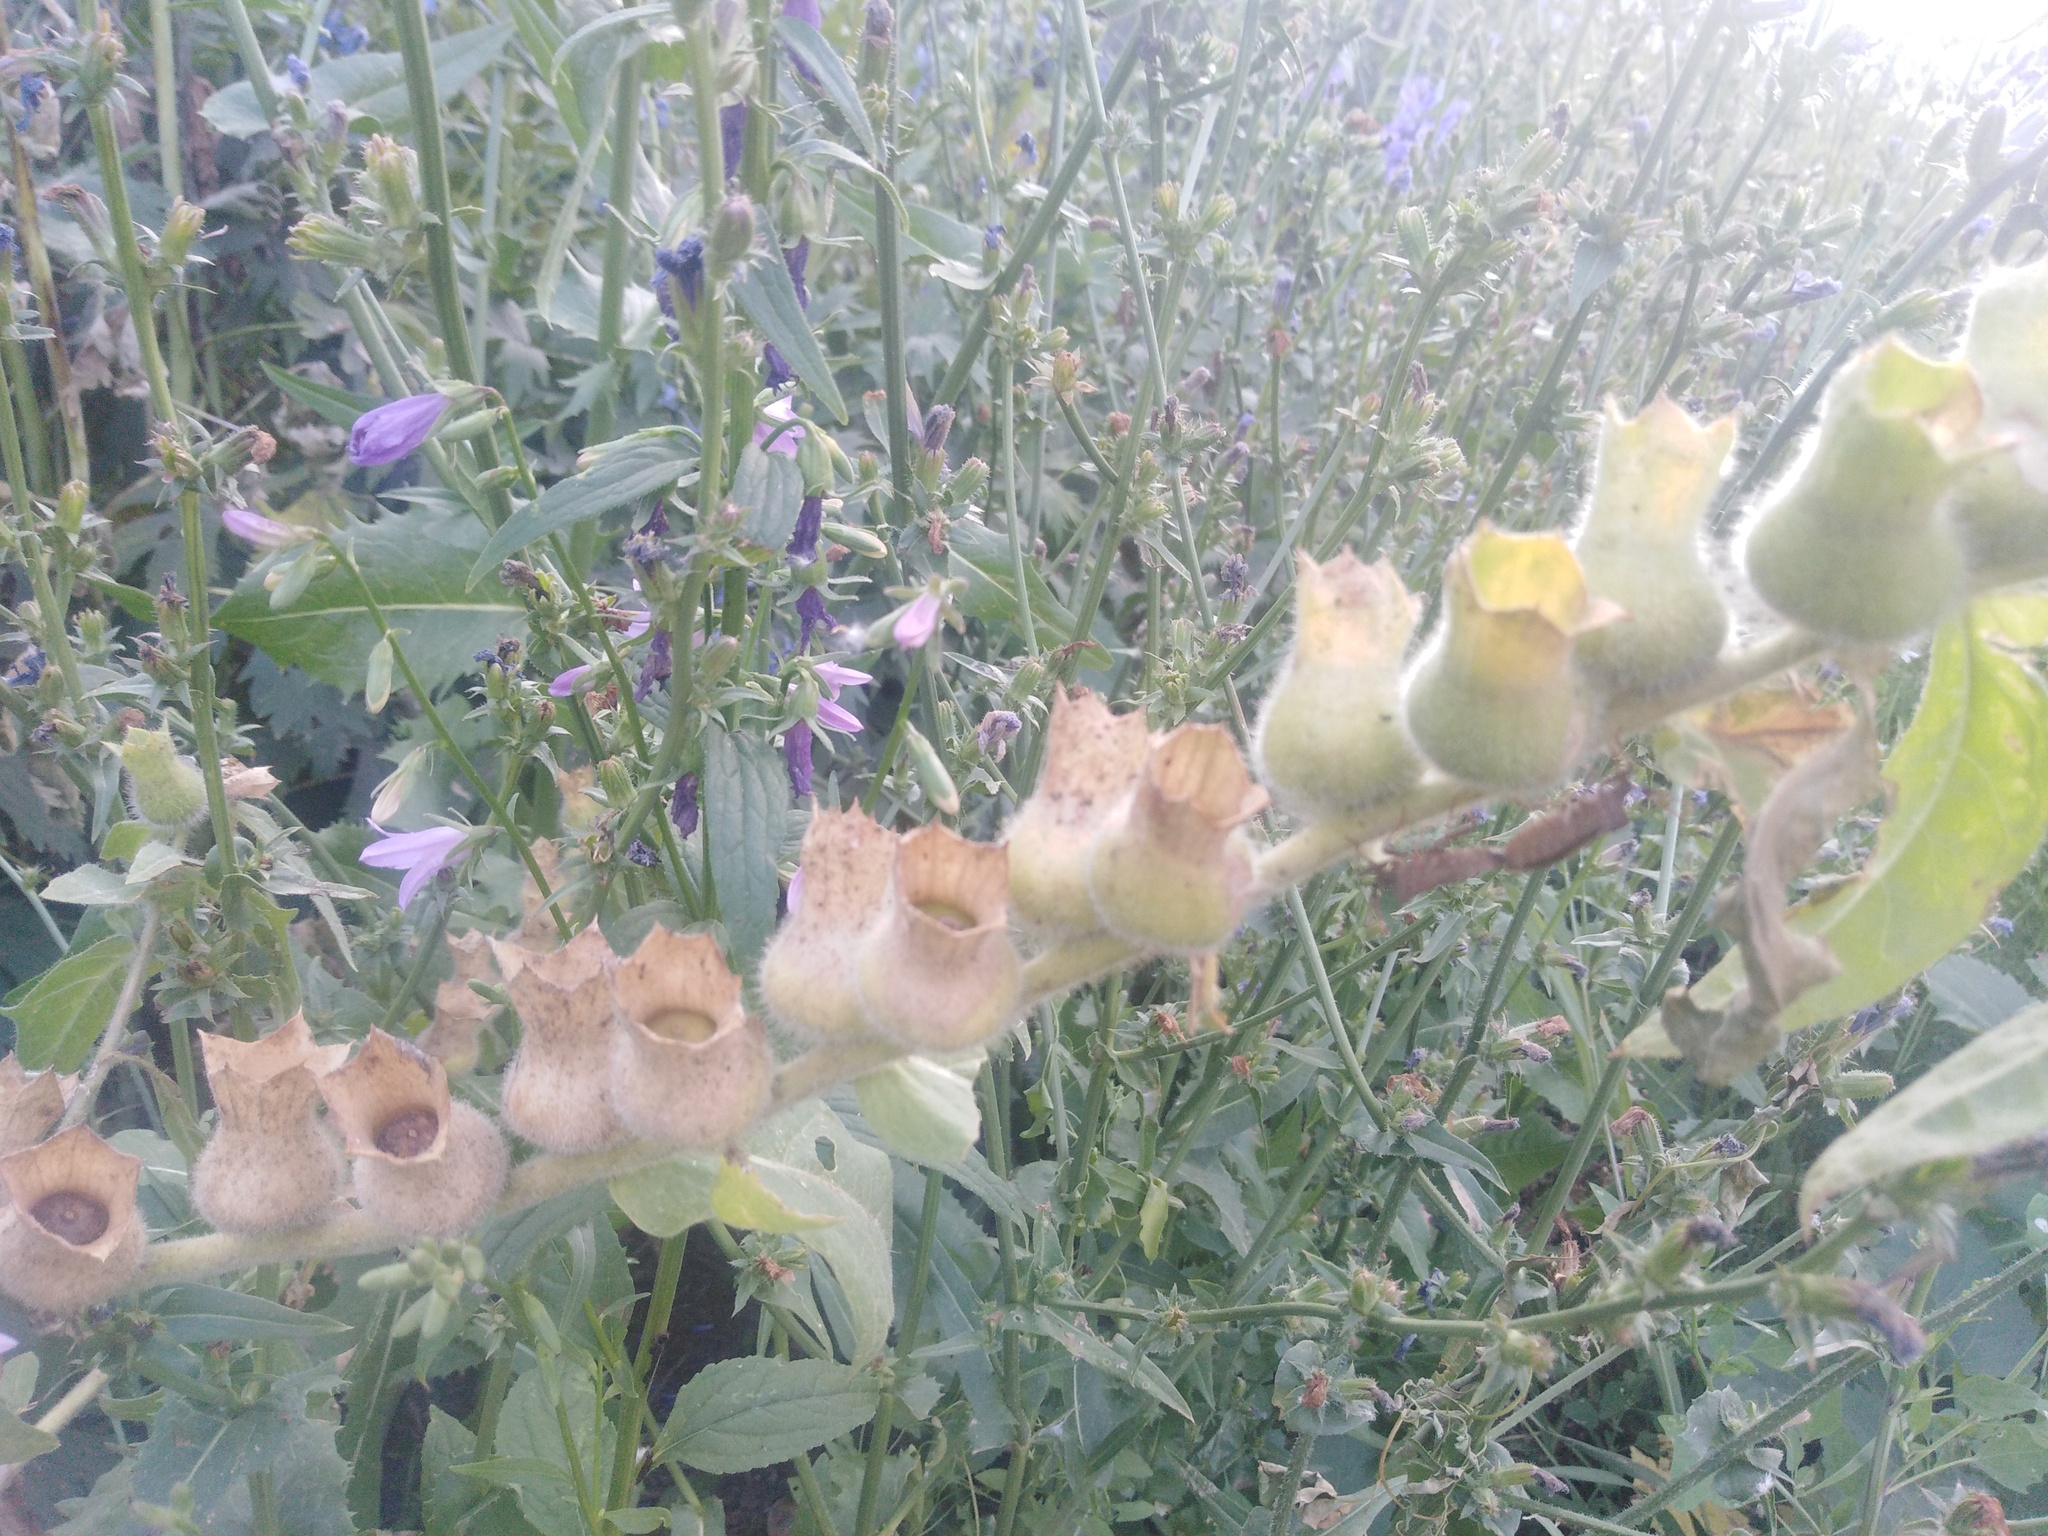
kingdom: Plantae
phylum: Tracheophyta
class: Magnoliopsida
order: Solanales
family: Solanaceae
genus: Hyoscyamus
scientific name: Hyoscyamus niger
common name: Henbane
